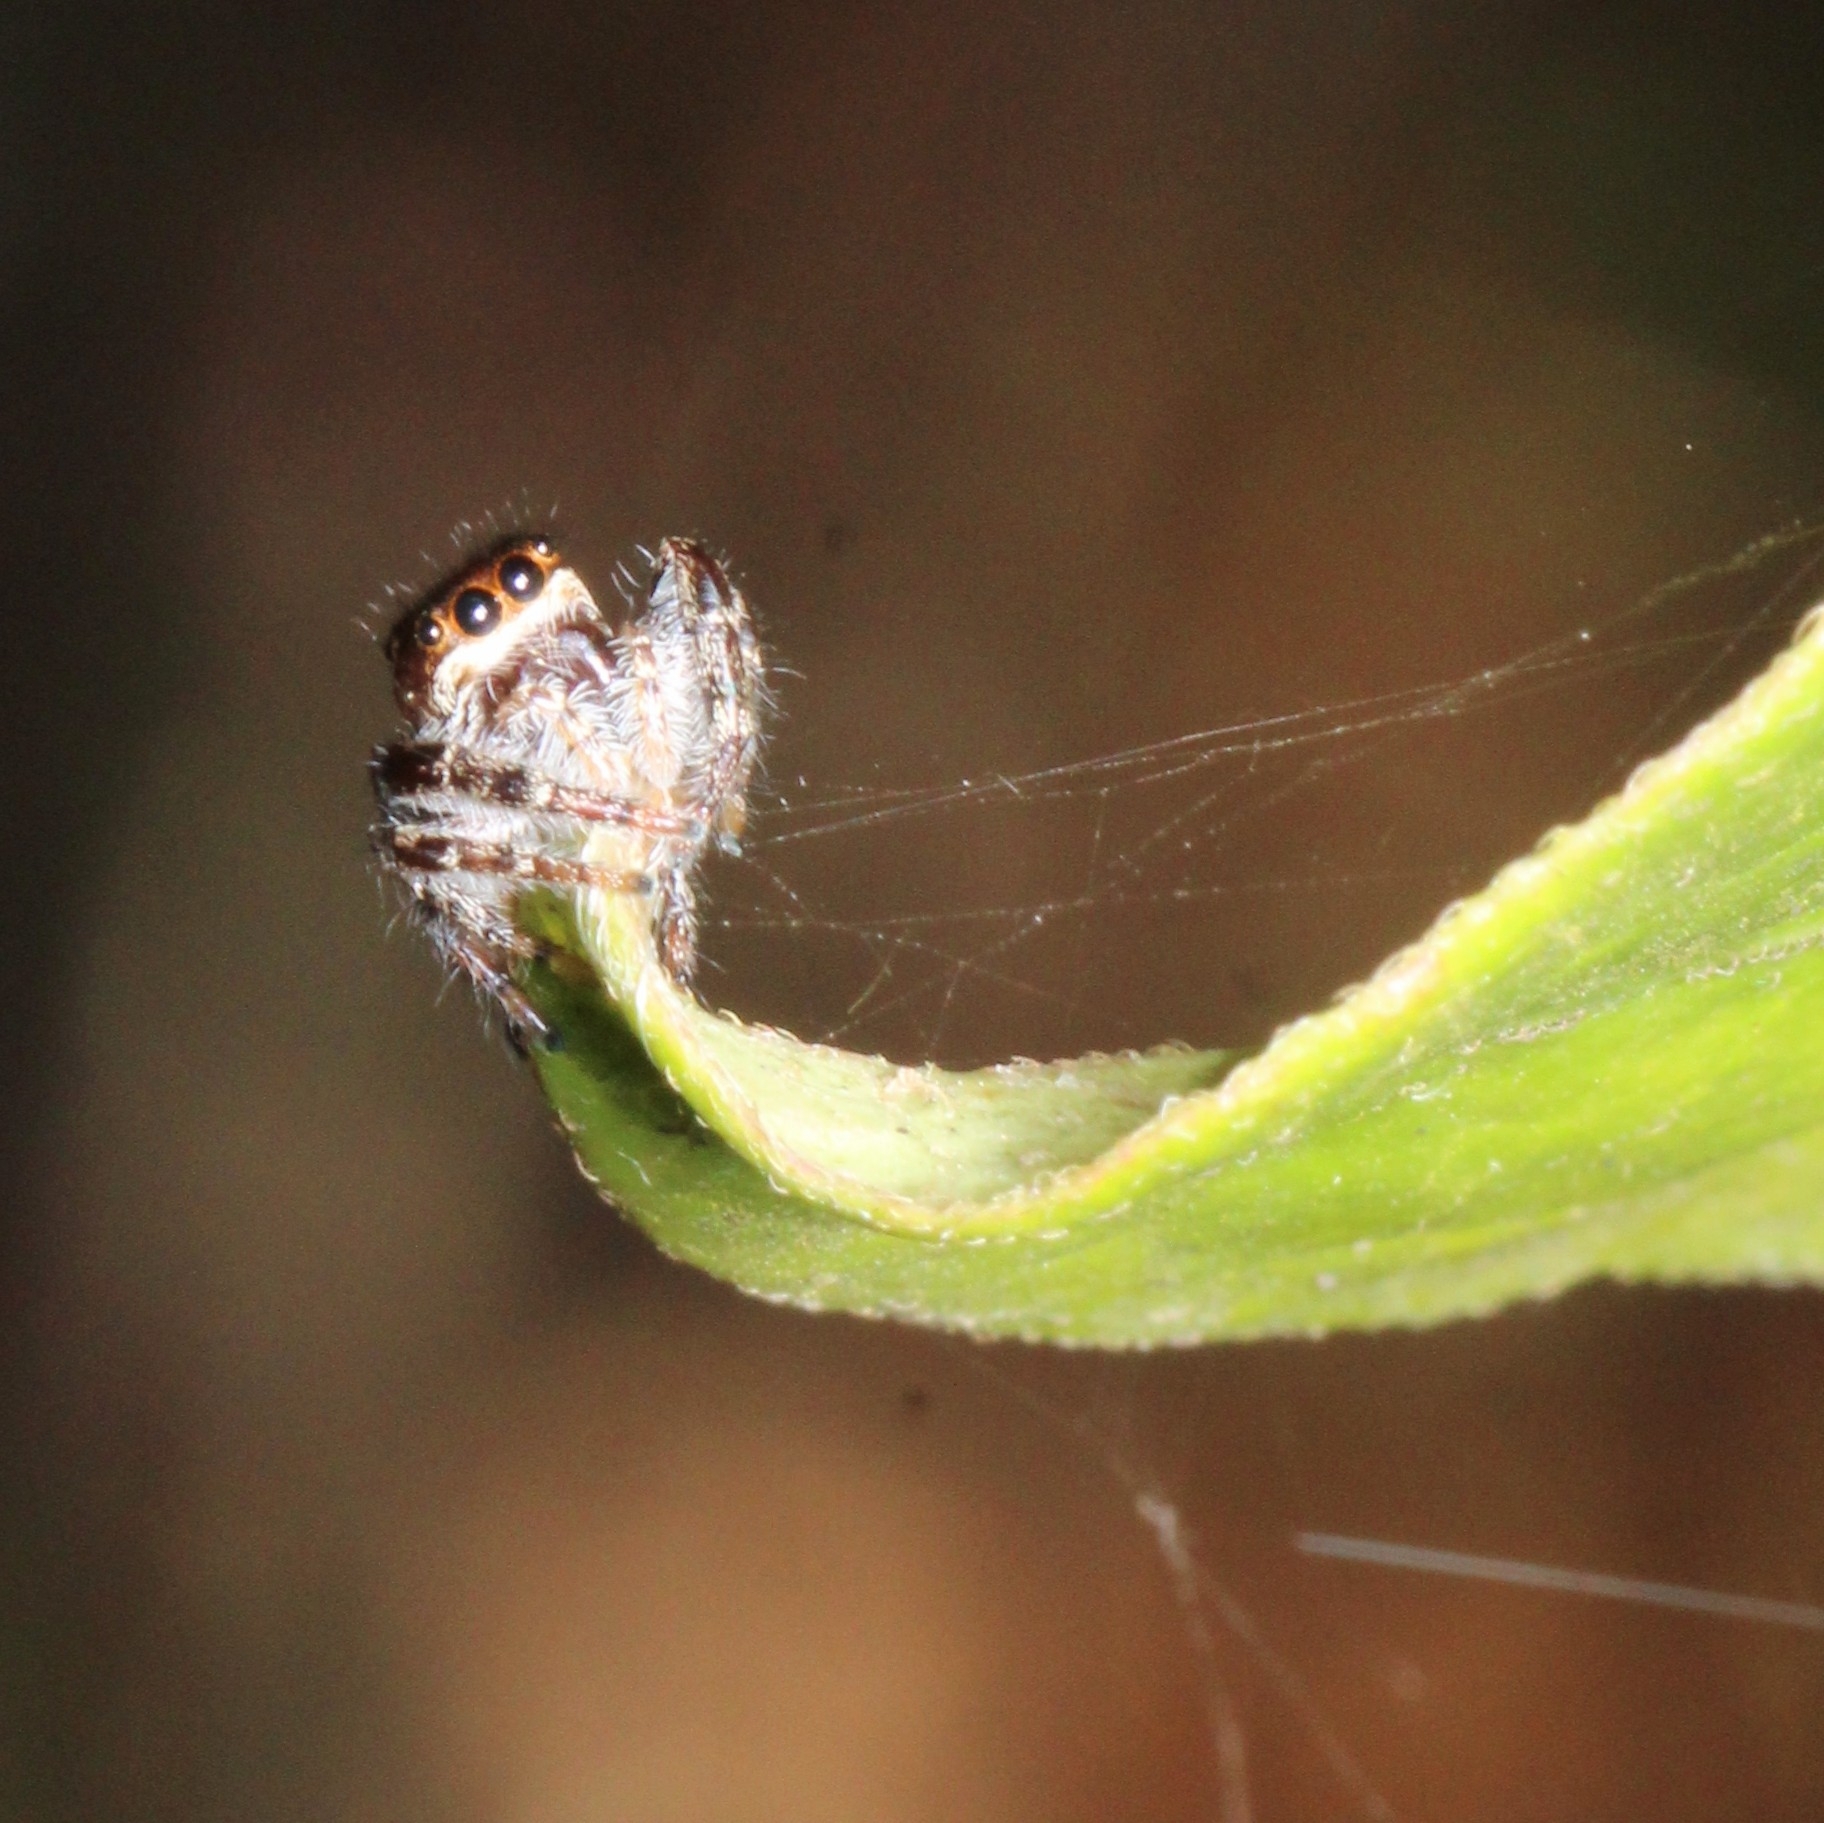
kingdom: Animalia
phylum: Arthropoda
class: Arachnida
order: Araneae
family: Salticidae
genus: Eris
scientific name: Eris militaris
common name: Bronze jumper
